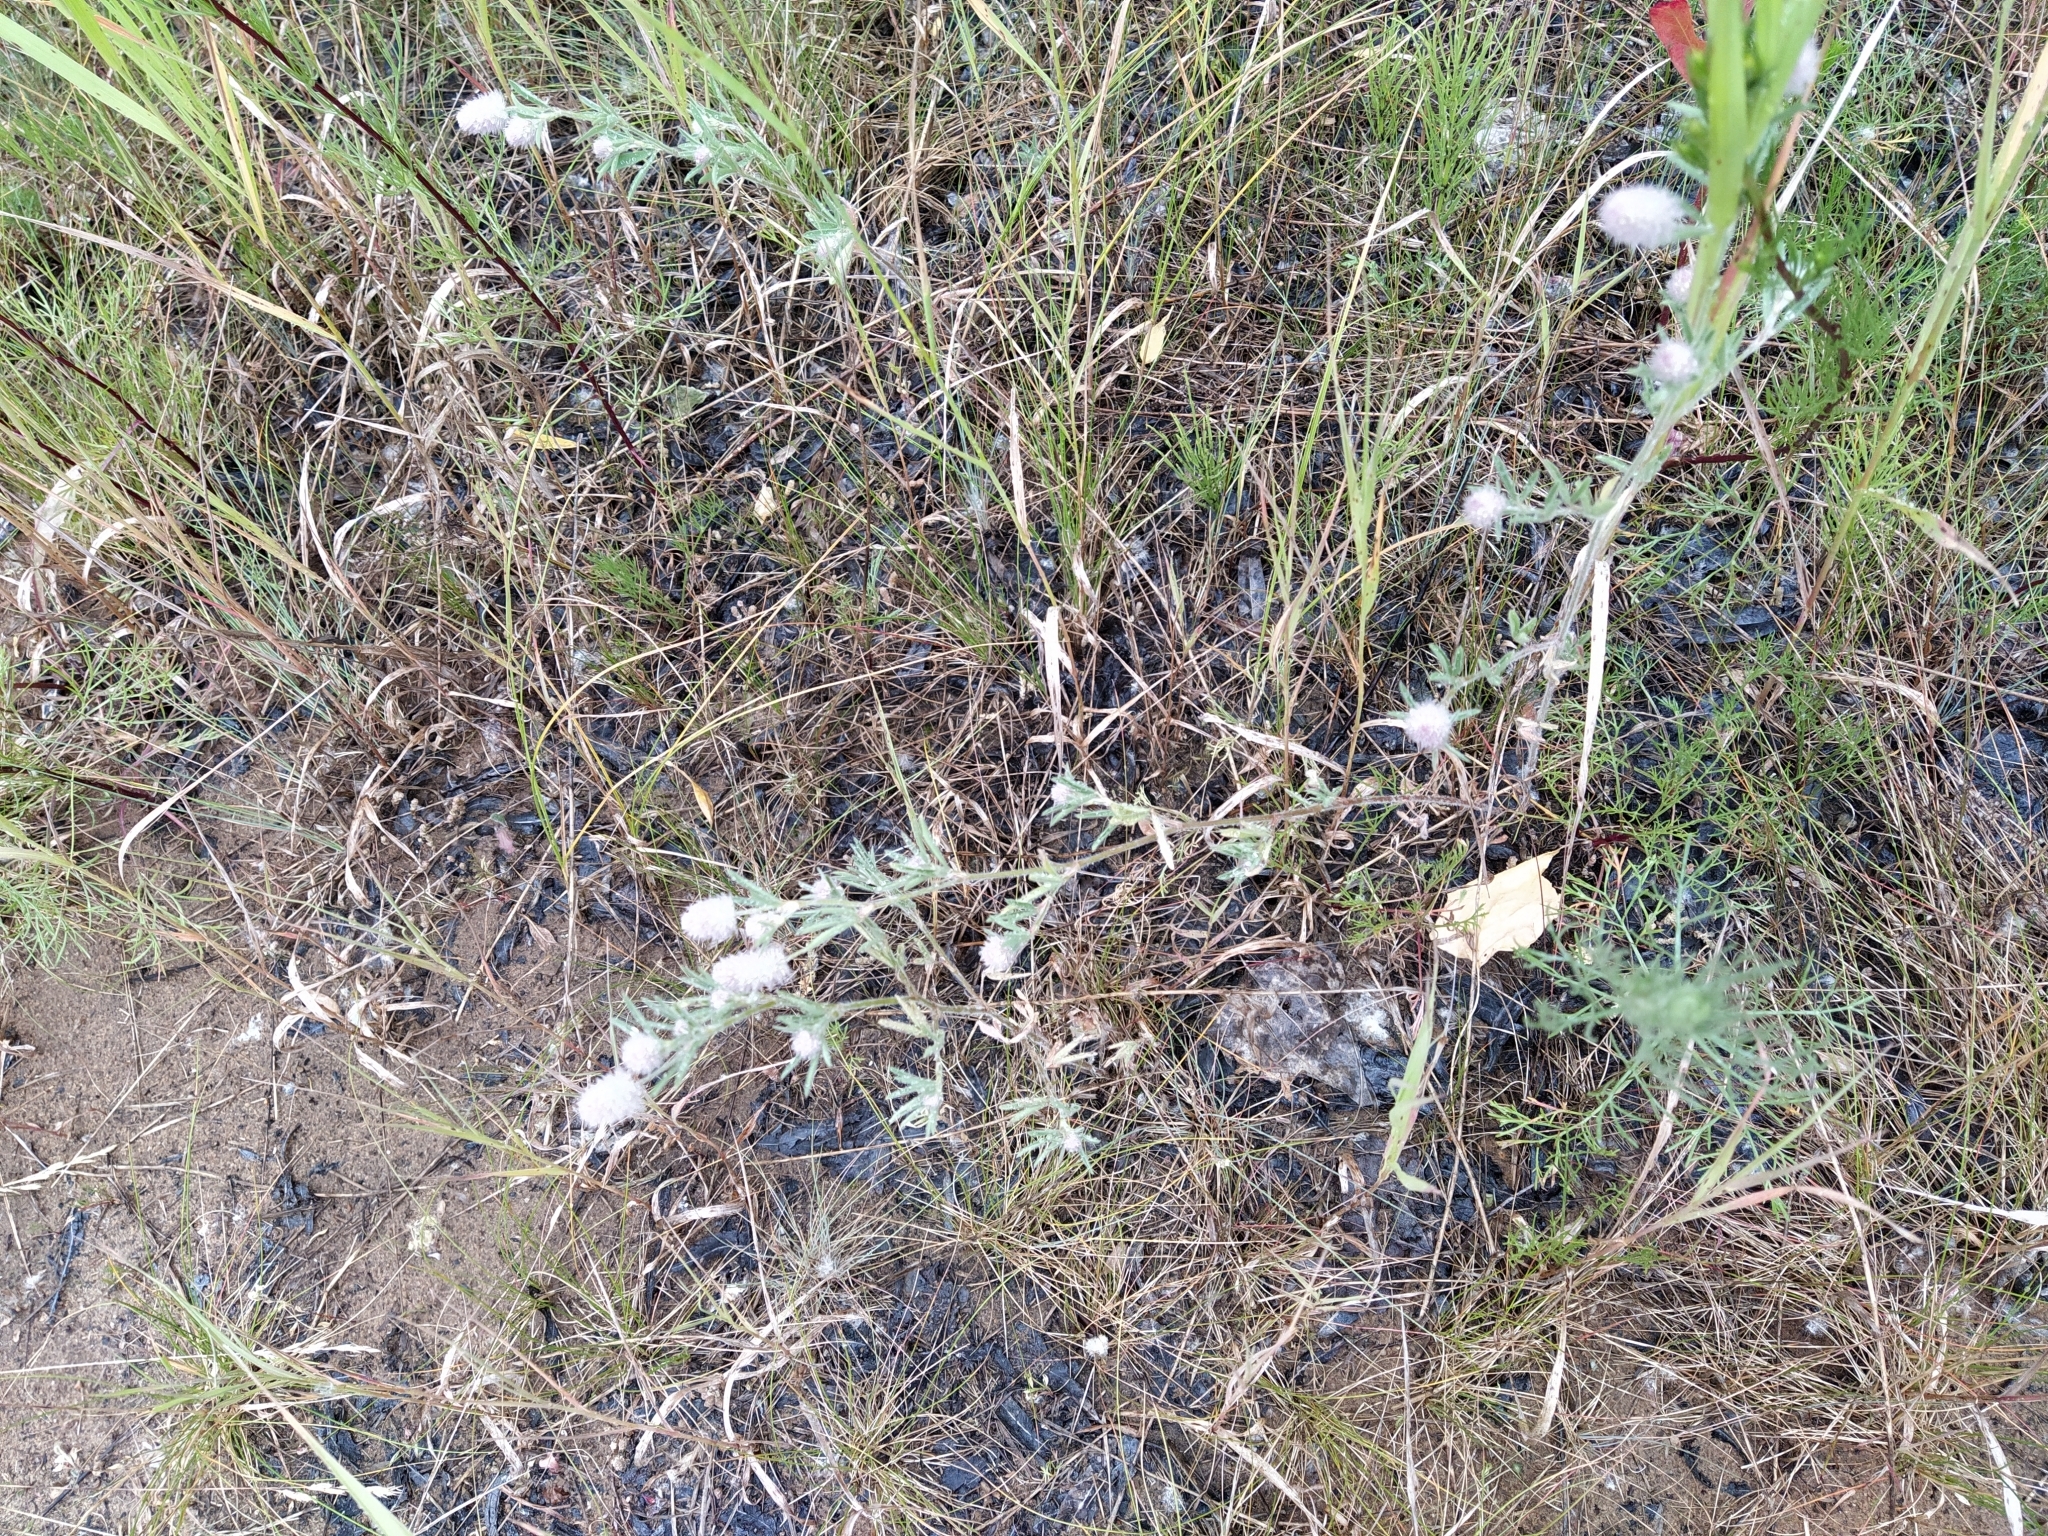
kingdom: Plantae
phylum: Tracheophyta
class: Magnoliopsida
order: Fabales
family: Fabaceae
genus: Trifolium
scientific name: Trifolium arvense
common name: Hare's-foot clover
